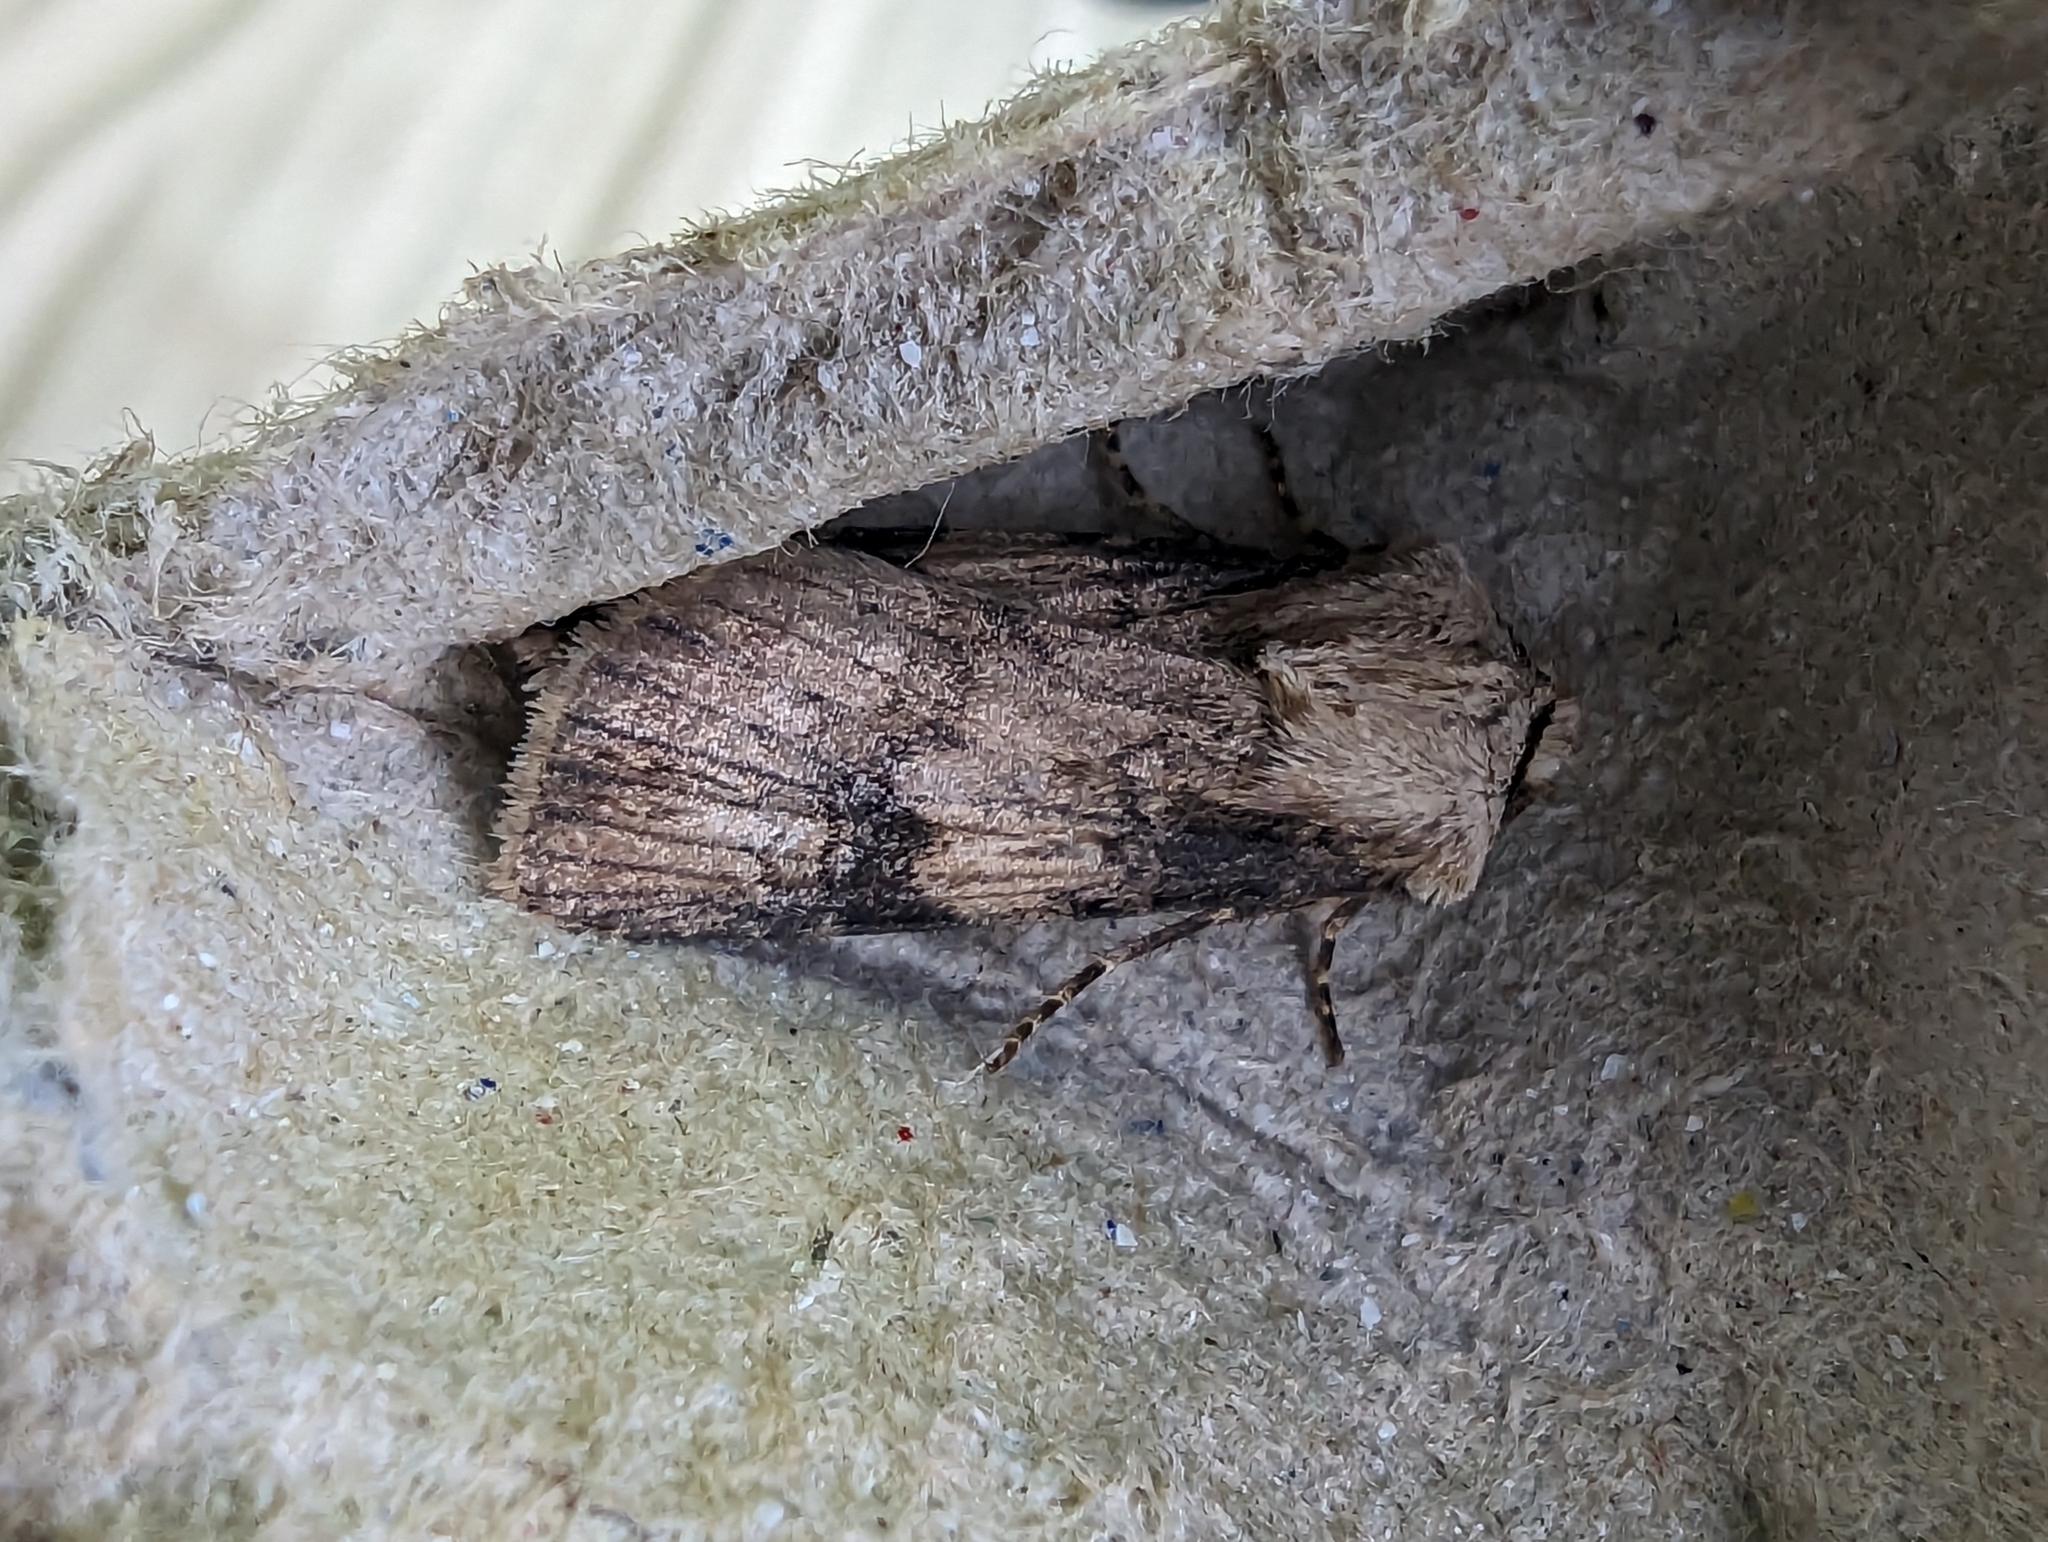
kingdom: Animalia
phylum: Arthropoda
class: Insecta
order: Lepidoptera
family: Noctuidae
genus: Agrotis
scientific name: Agrotis puta
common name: Shuttle-shaped dart
